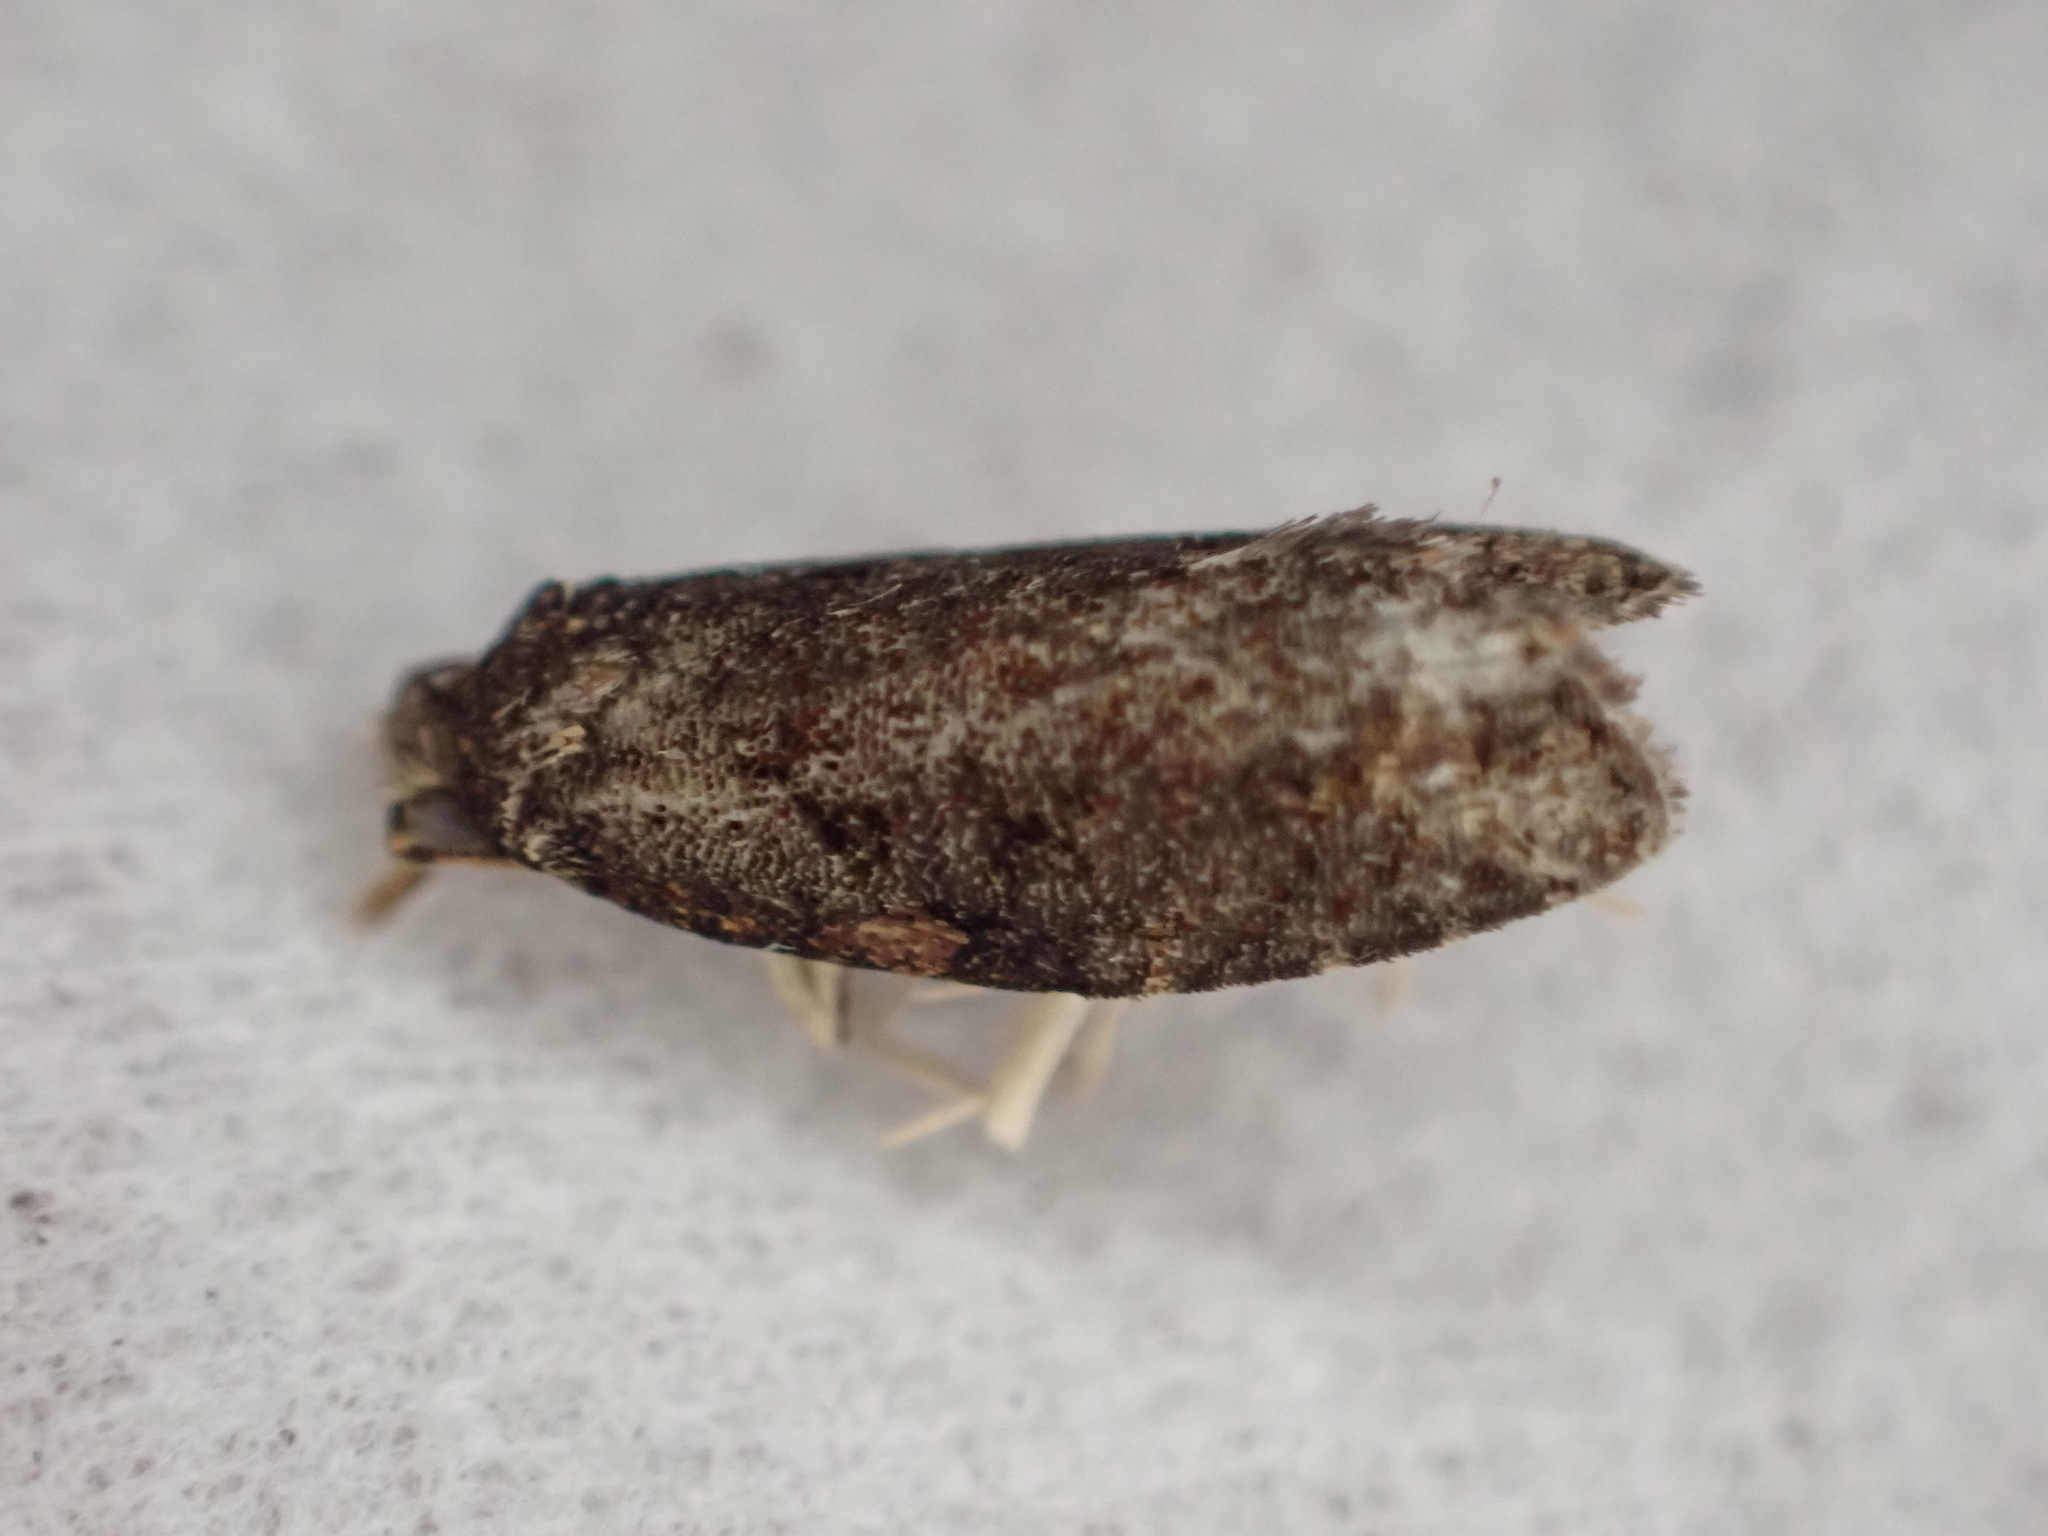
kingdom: Animalia
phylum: Arthropoda
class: Insecta
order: Lepidoptera
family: Tortricidae
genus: Capua
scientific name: Capua intractana
